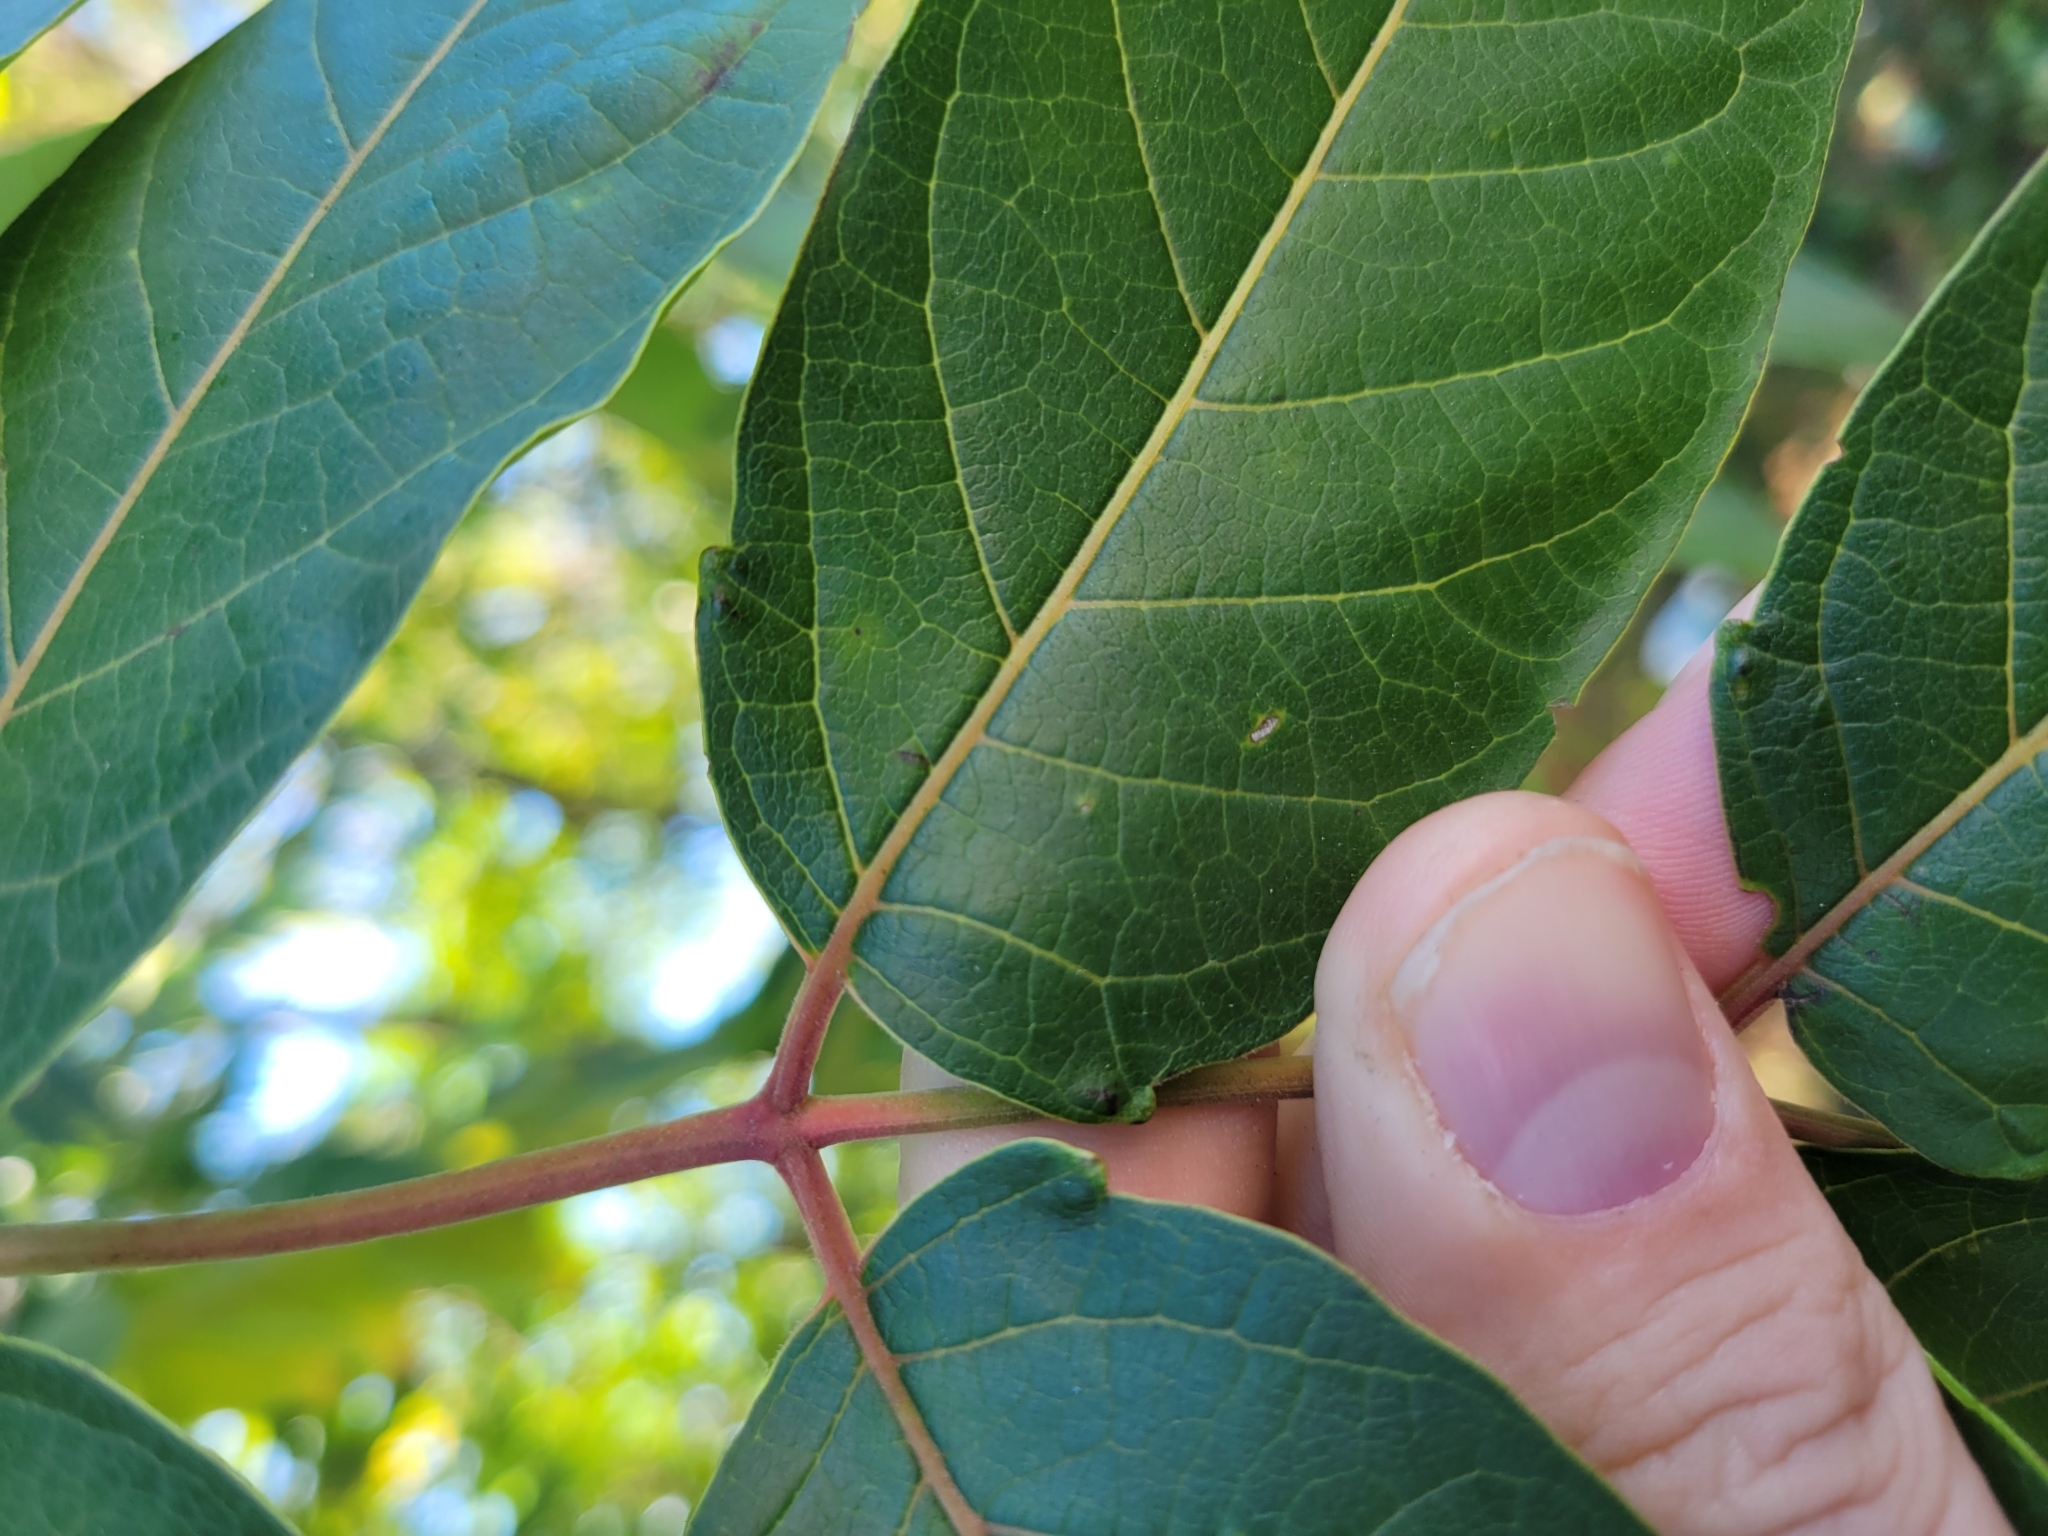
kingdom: Plantae
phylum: Tracheophyta
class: Magnoliopsida
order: Sapindales
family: Simaroubaceae
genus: Ailanthus
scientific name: Ailanthus altissima
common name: Tree-of-heaven
